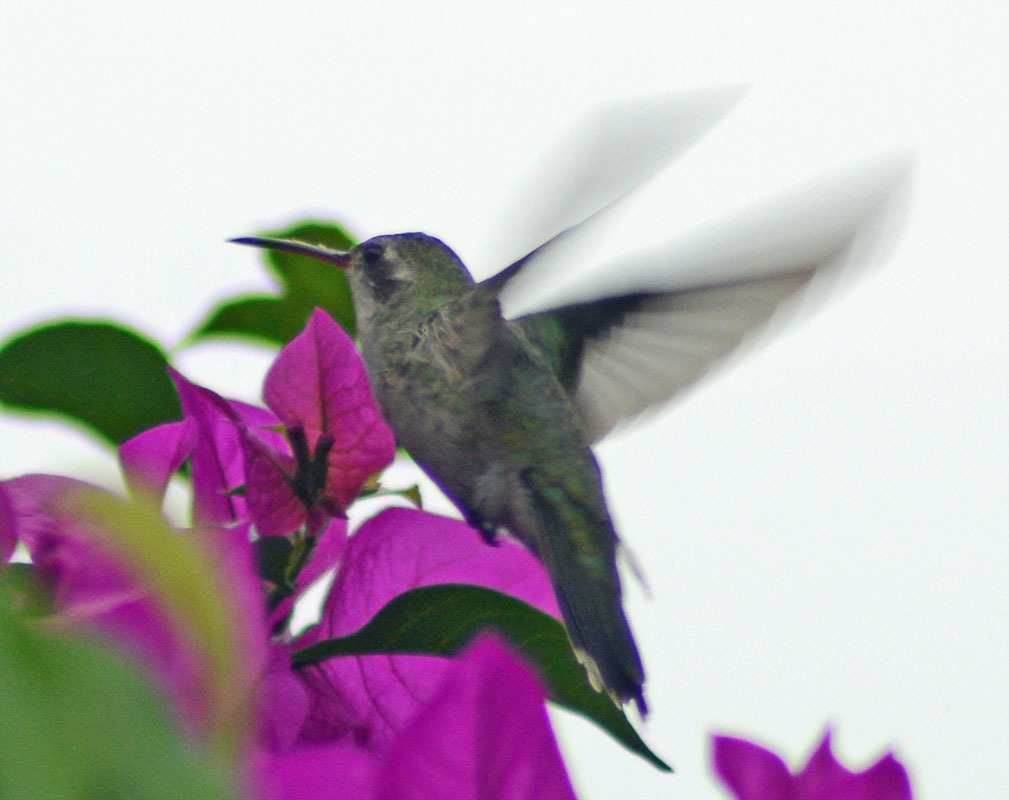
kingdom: Animalia
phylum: Chordata
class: Aves
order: Apodiformes
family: Trochilidae
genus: Cynanthus
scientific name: Cynanthus latirostris
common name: Broad-billed hummingbird
